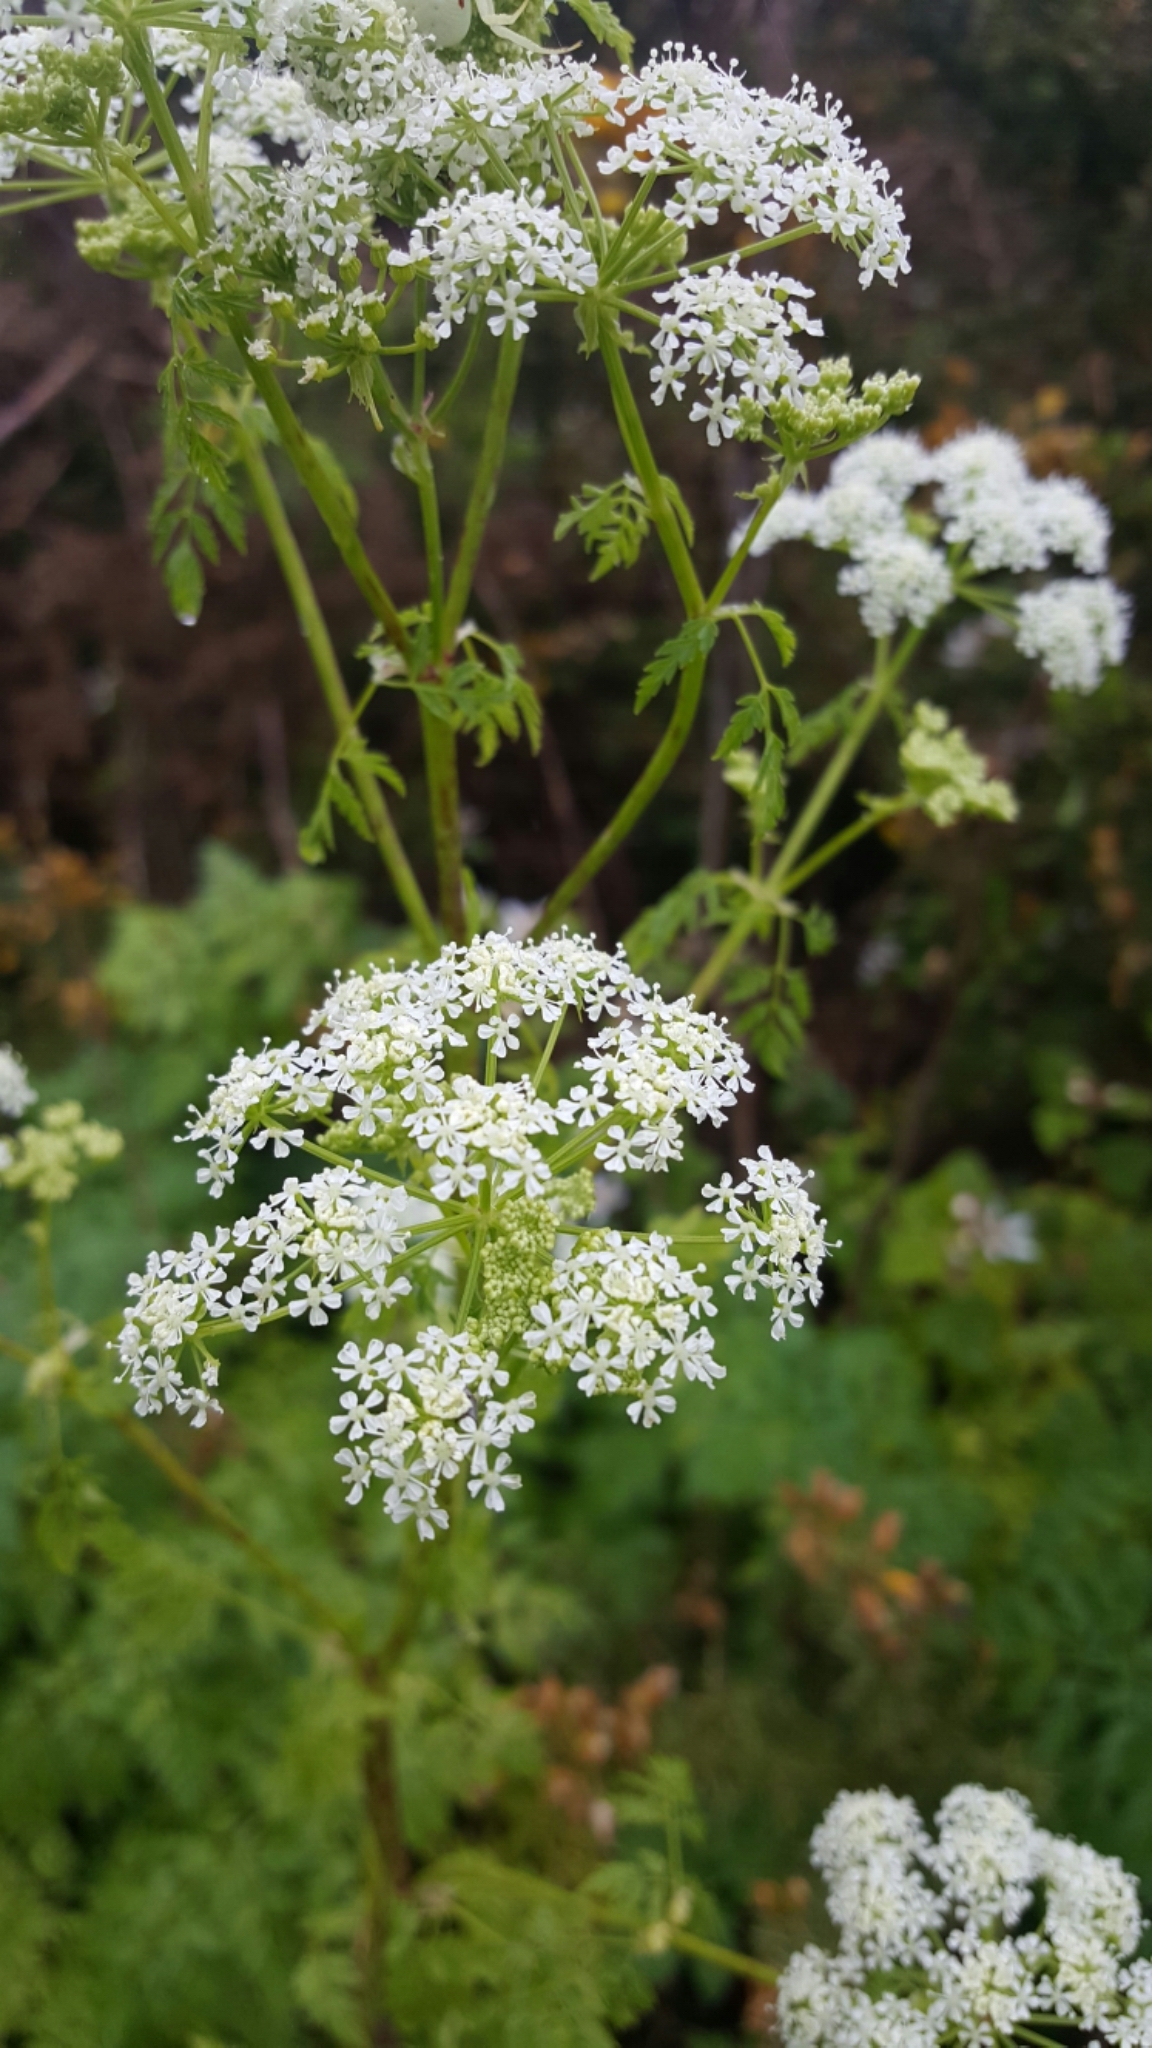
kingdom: Plantae
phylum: Tracheophyta
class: Magnoliopsida
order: Apiales
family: Apiaceae
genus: Conium
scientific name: Conium maculatum
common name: Hemlock
